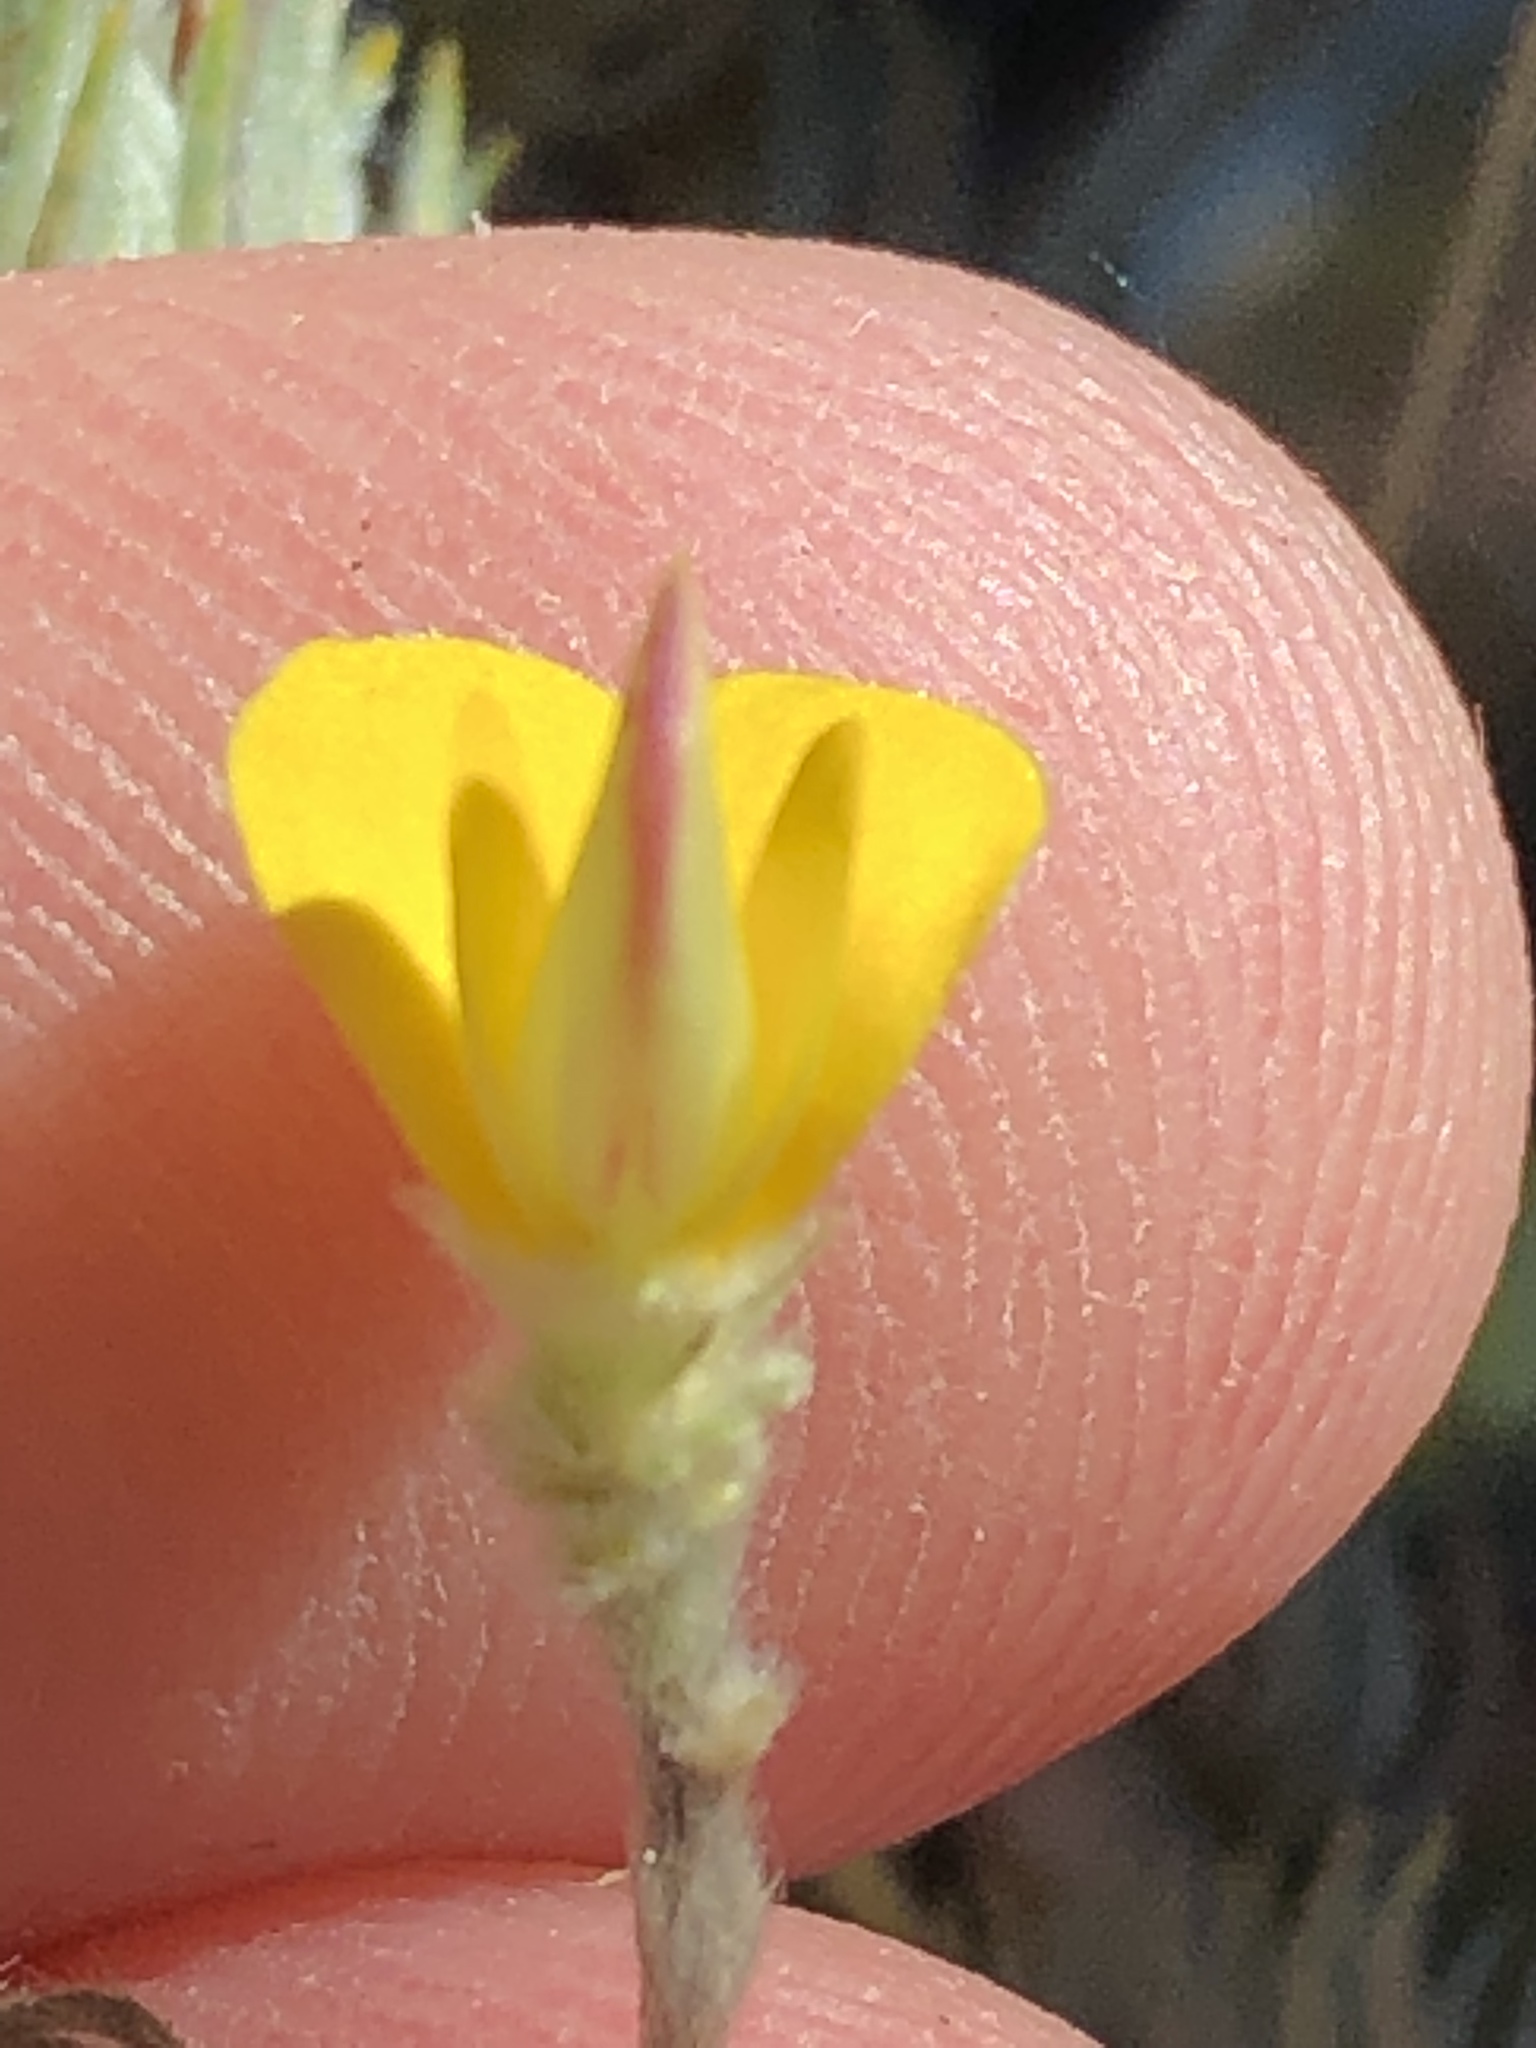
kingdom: Plantae
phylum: Tracheophyta
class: Magnoliopsida
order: Fabales
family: Fabaceae
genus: Aspalathus
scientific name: Aspalathus longipes
